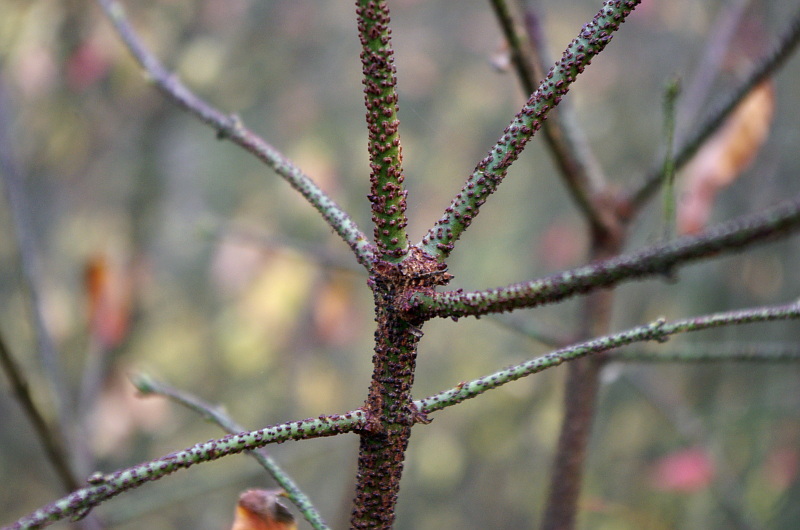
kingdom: Plantae
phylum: Tracheophyta
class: Magnoliopsida
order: Celastrales
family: Celastraceae
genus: Euonymus
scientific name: Euonymus verrucosus
